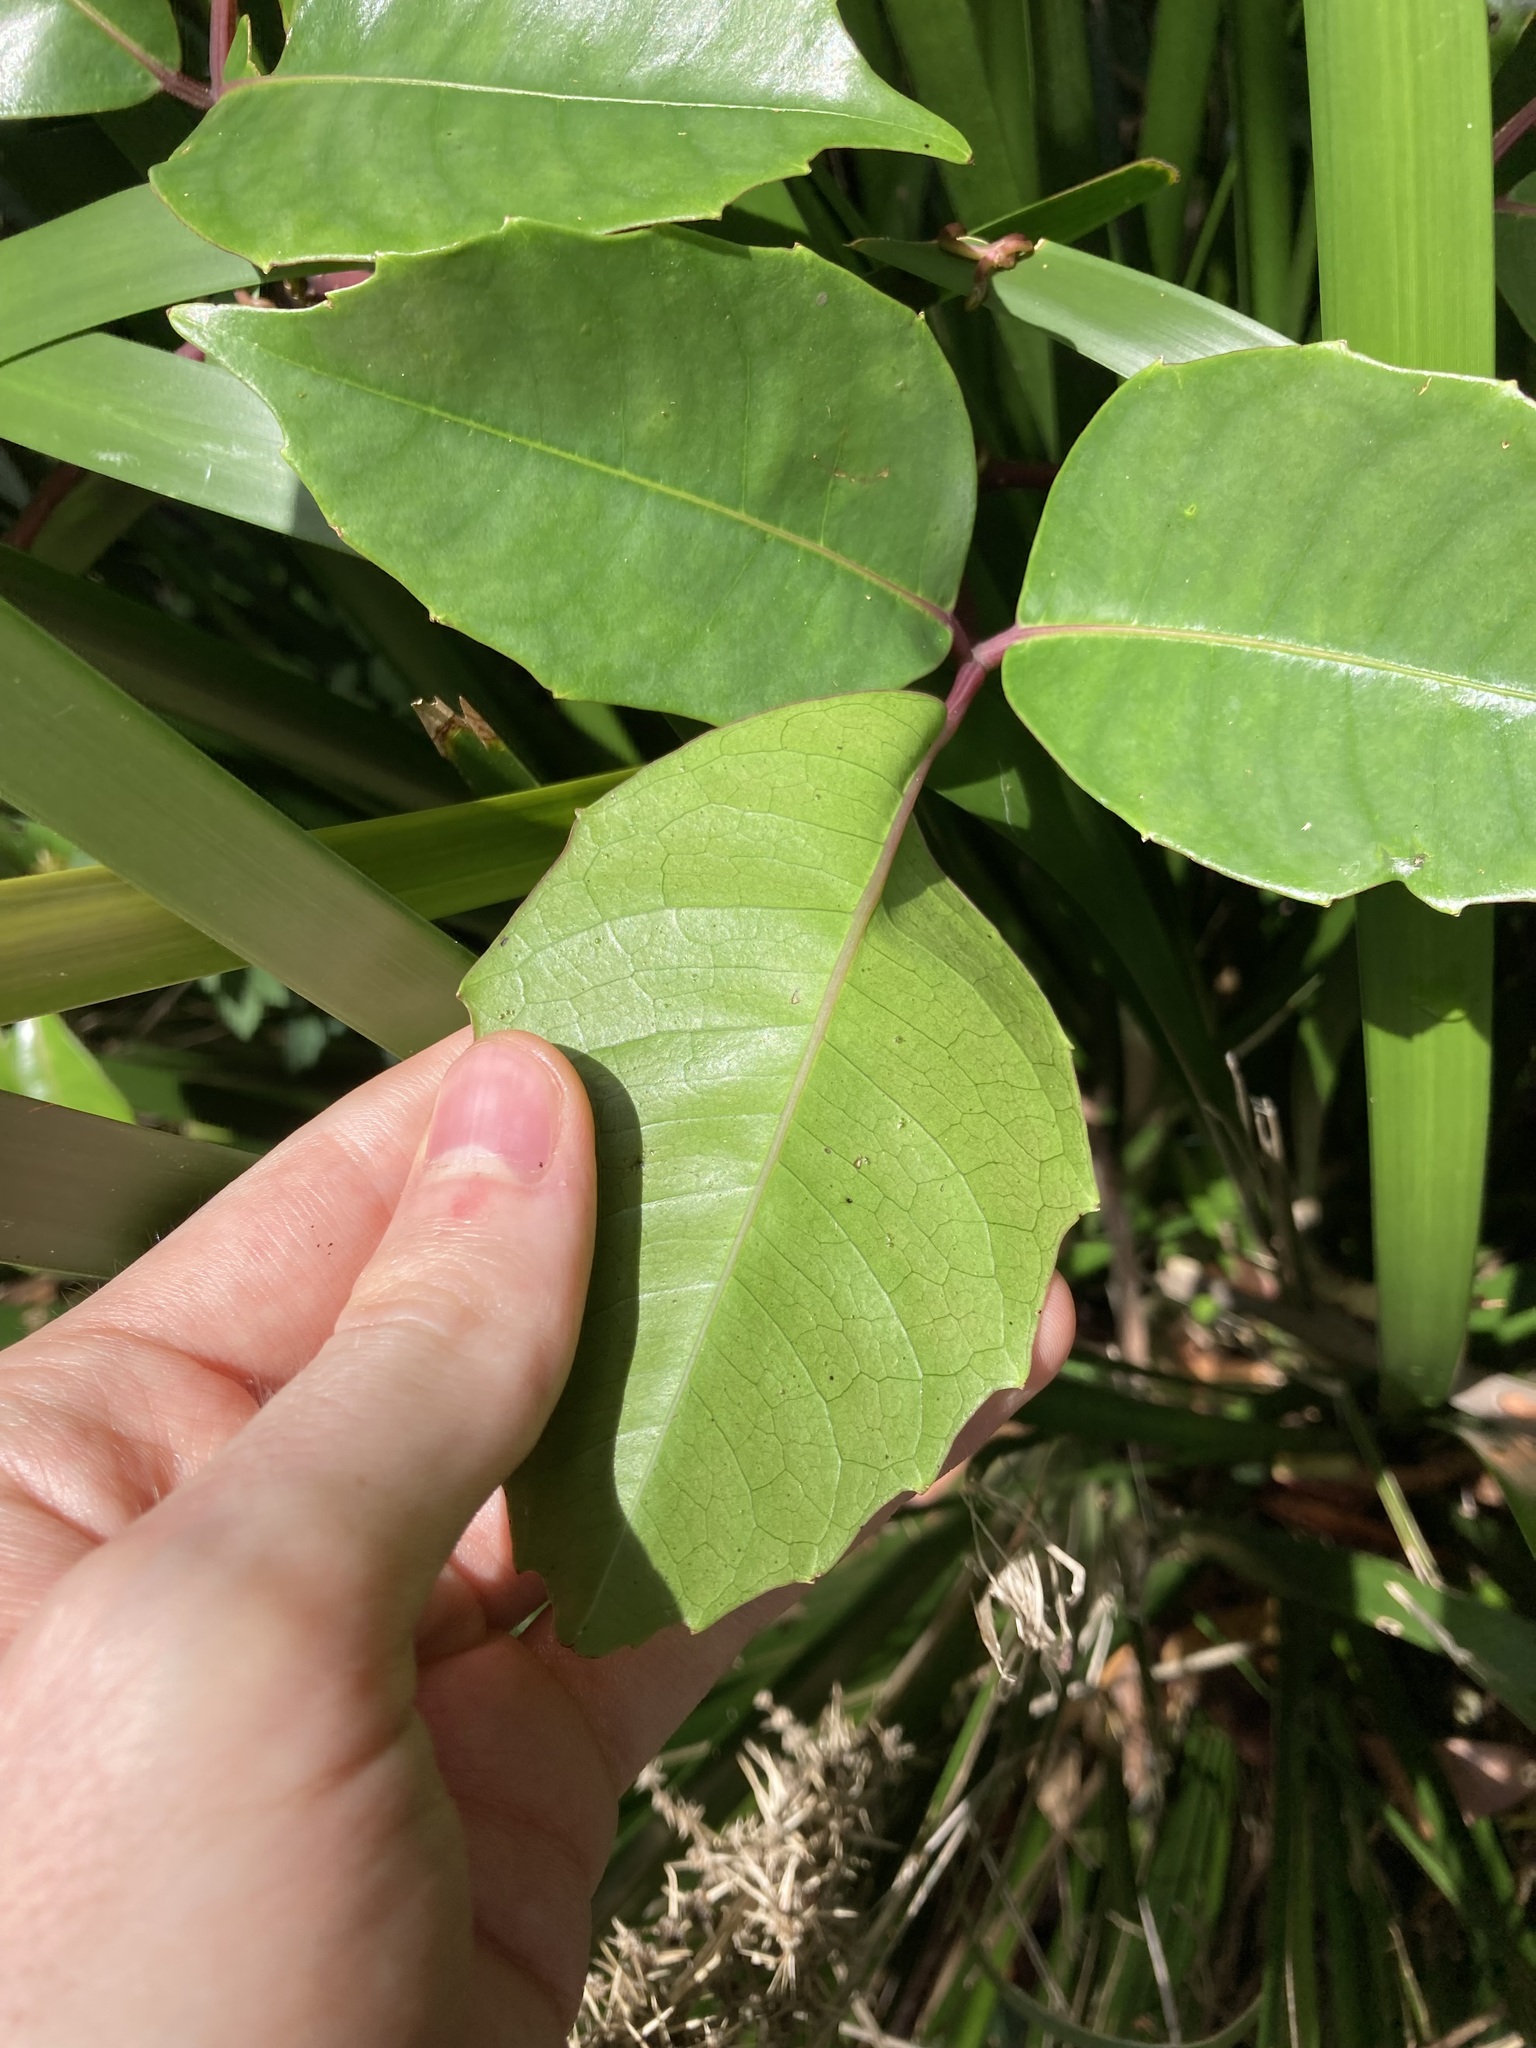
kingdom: Plantae
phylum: Tracheophyta
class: Magnoliopsida
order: Vitales
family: Vitaceae
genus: Tetrastigma
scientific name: Tetrastigma nitens
